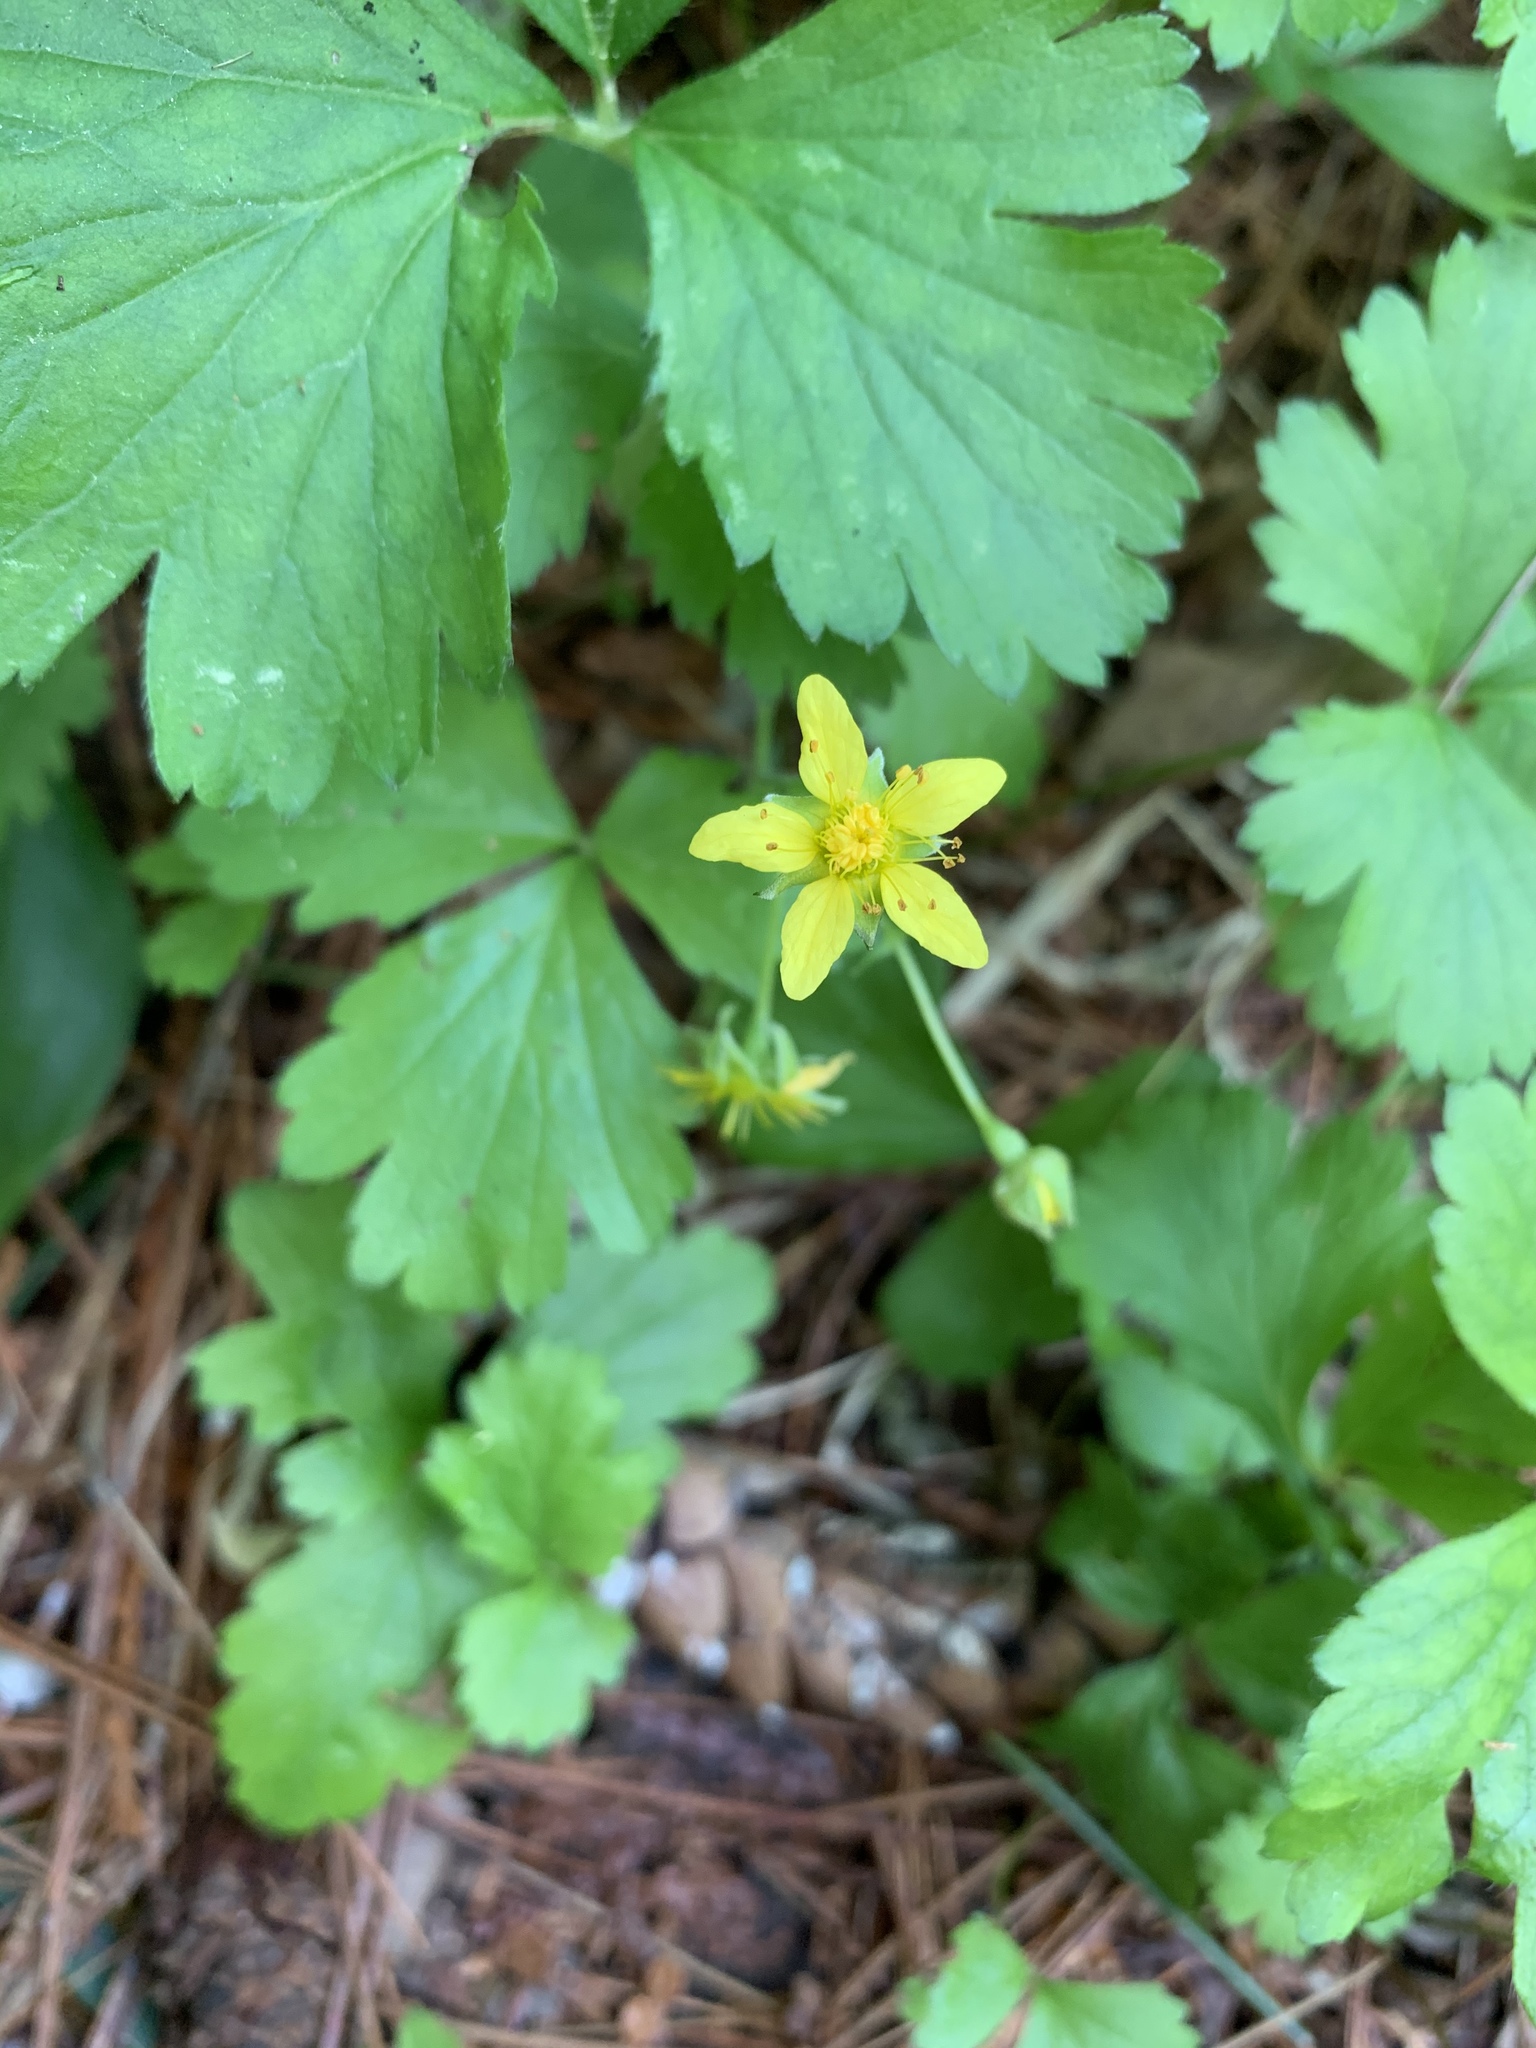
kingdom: Plantae
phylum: Tracheophyta
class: Magnoliopsida
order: Rosales
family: Rosaceae
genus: Geum
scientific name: Geum fragarioides
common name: Appalachian barren strawberry
